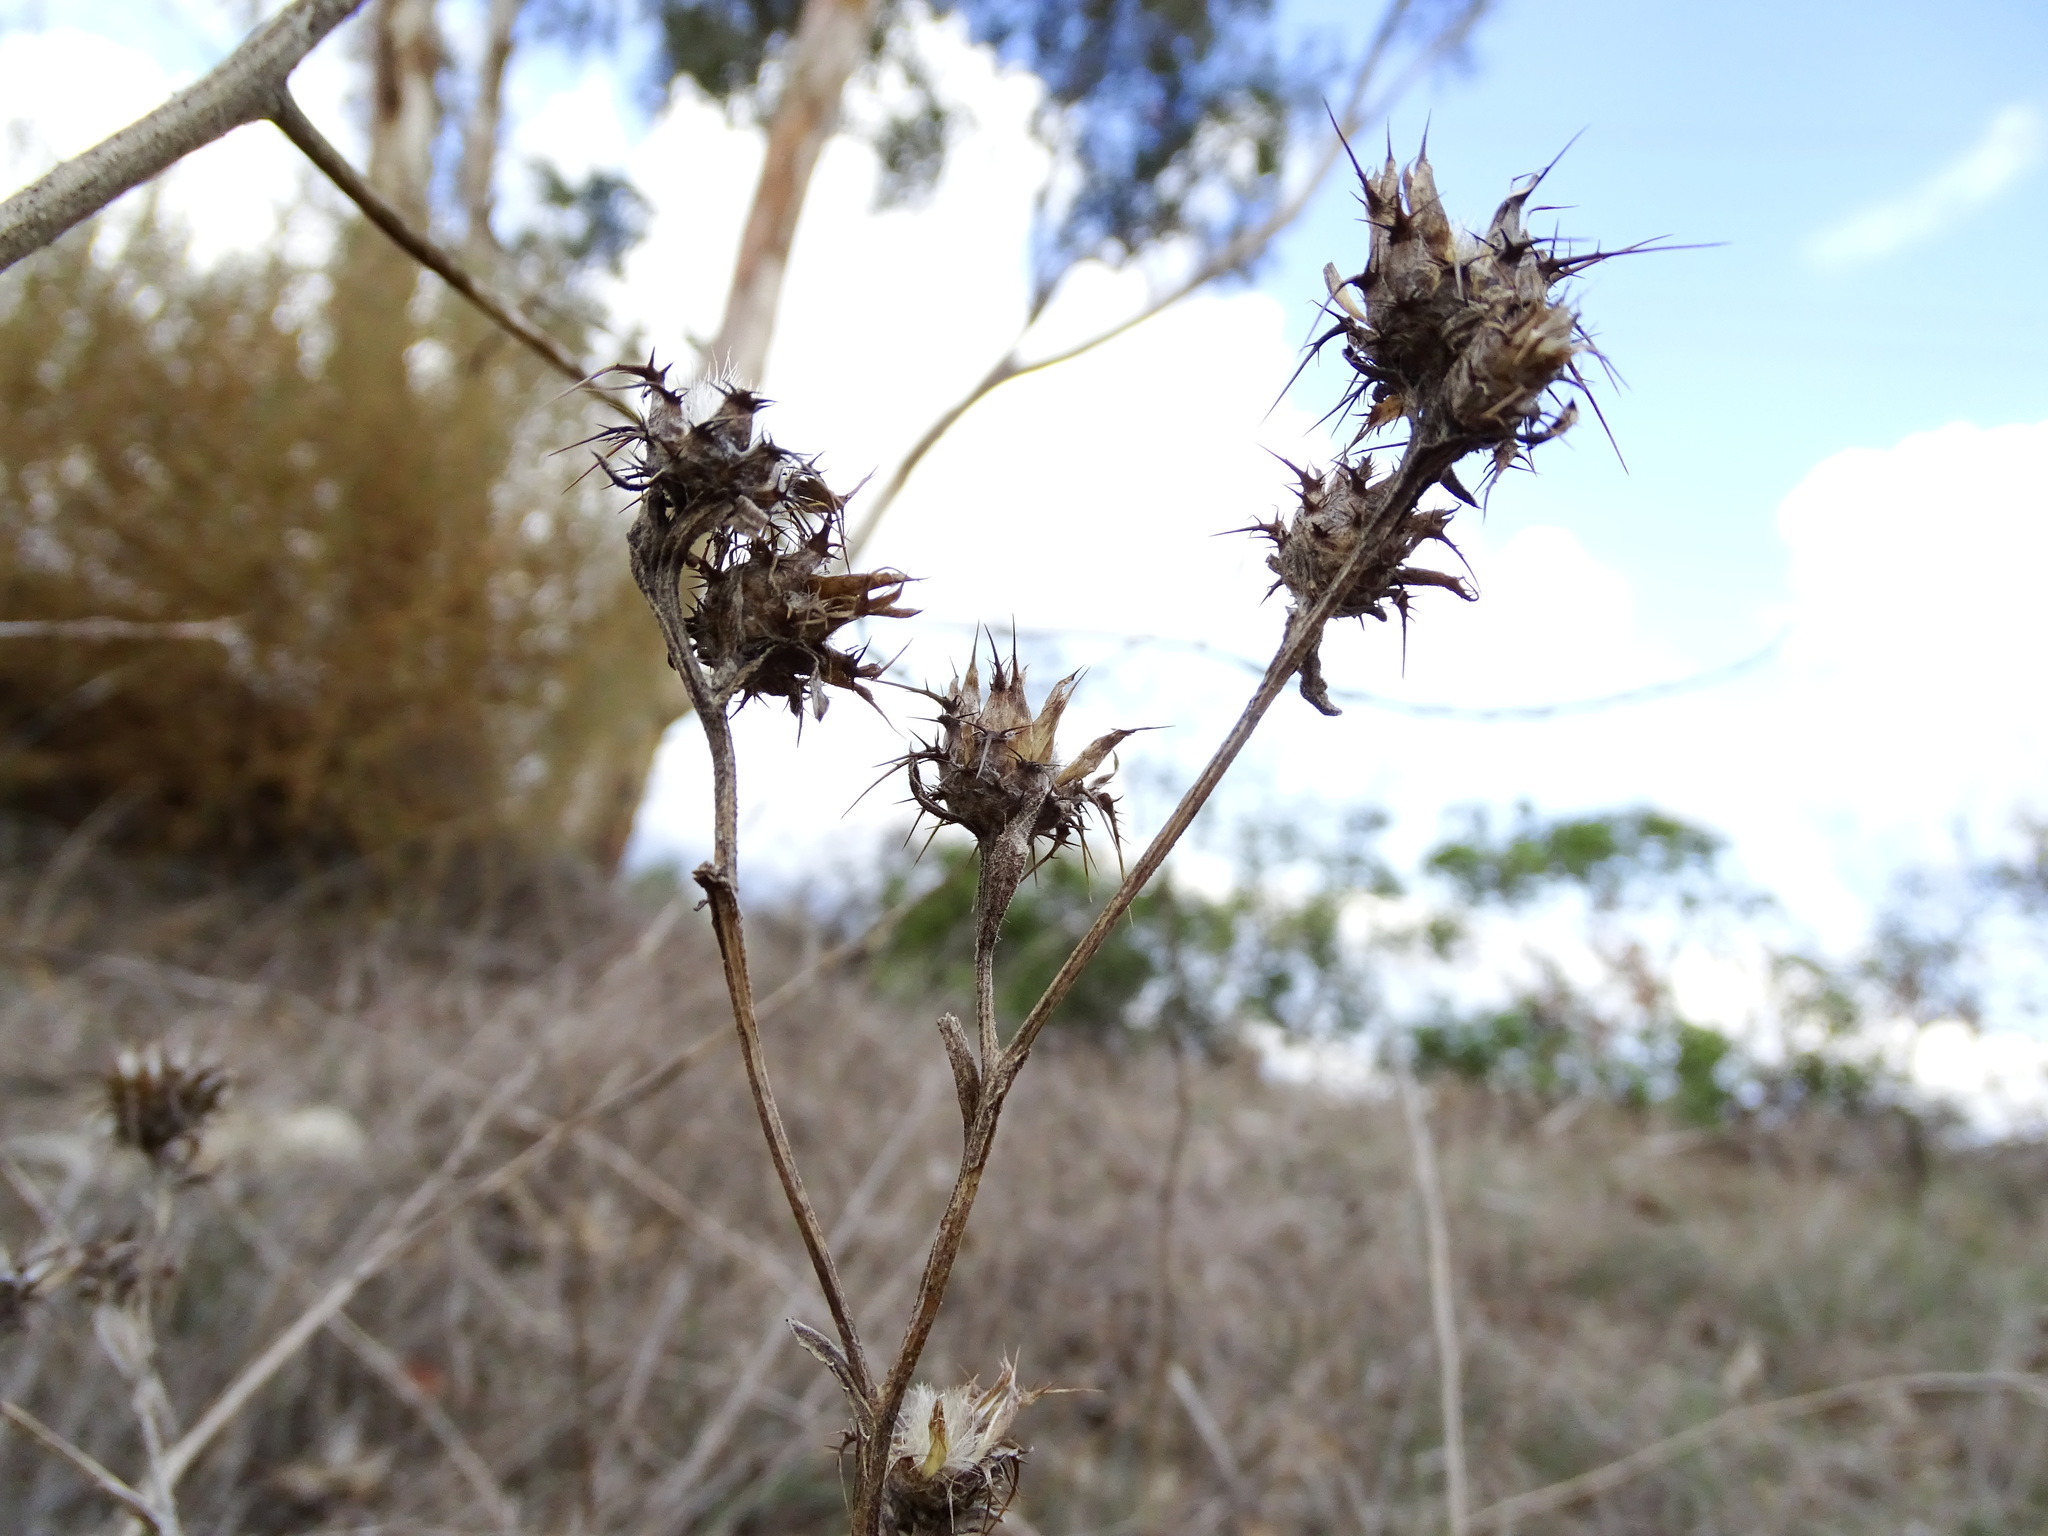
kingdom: Plantae
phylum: Tracheophyta
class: Magnoliopsida
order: Asterales
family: Asteraceae
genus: Centaurea
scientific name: Centaurea melitensis
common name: Maltese star-thistle
